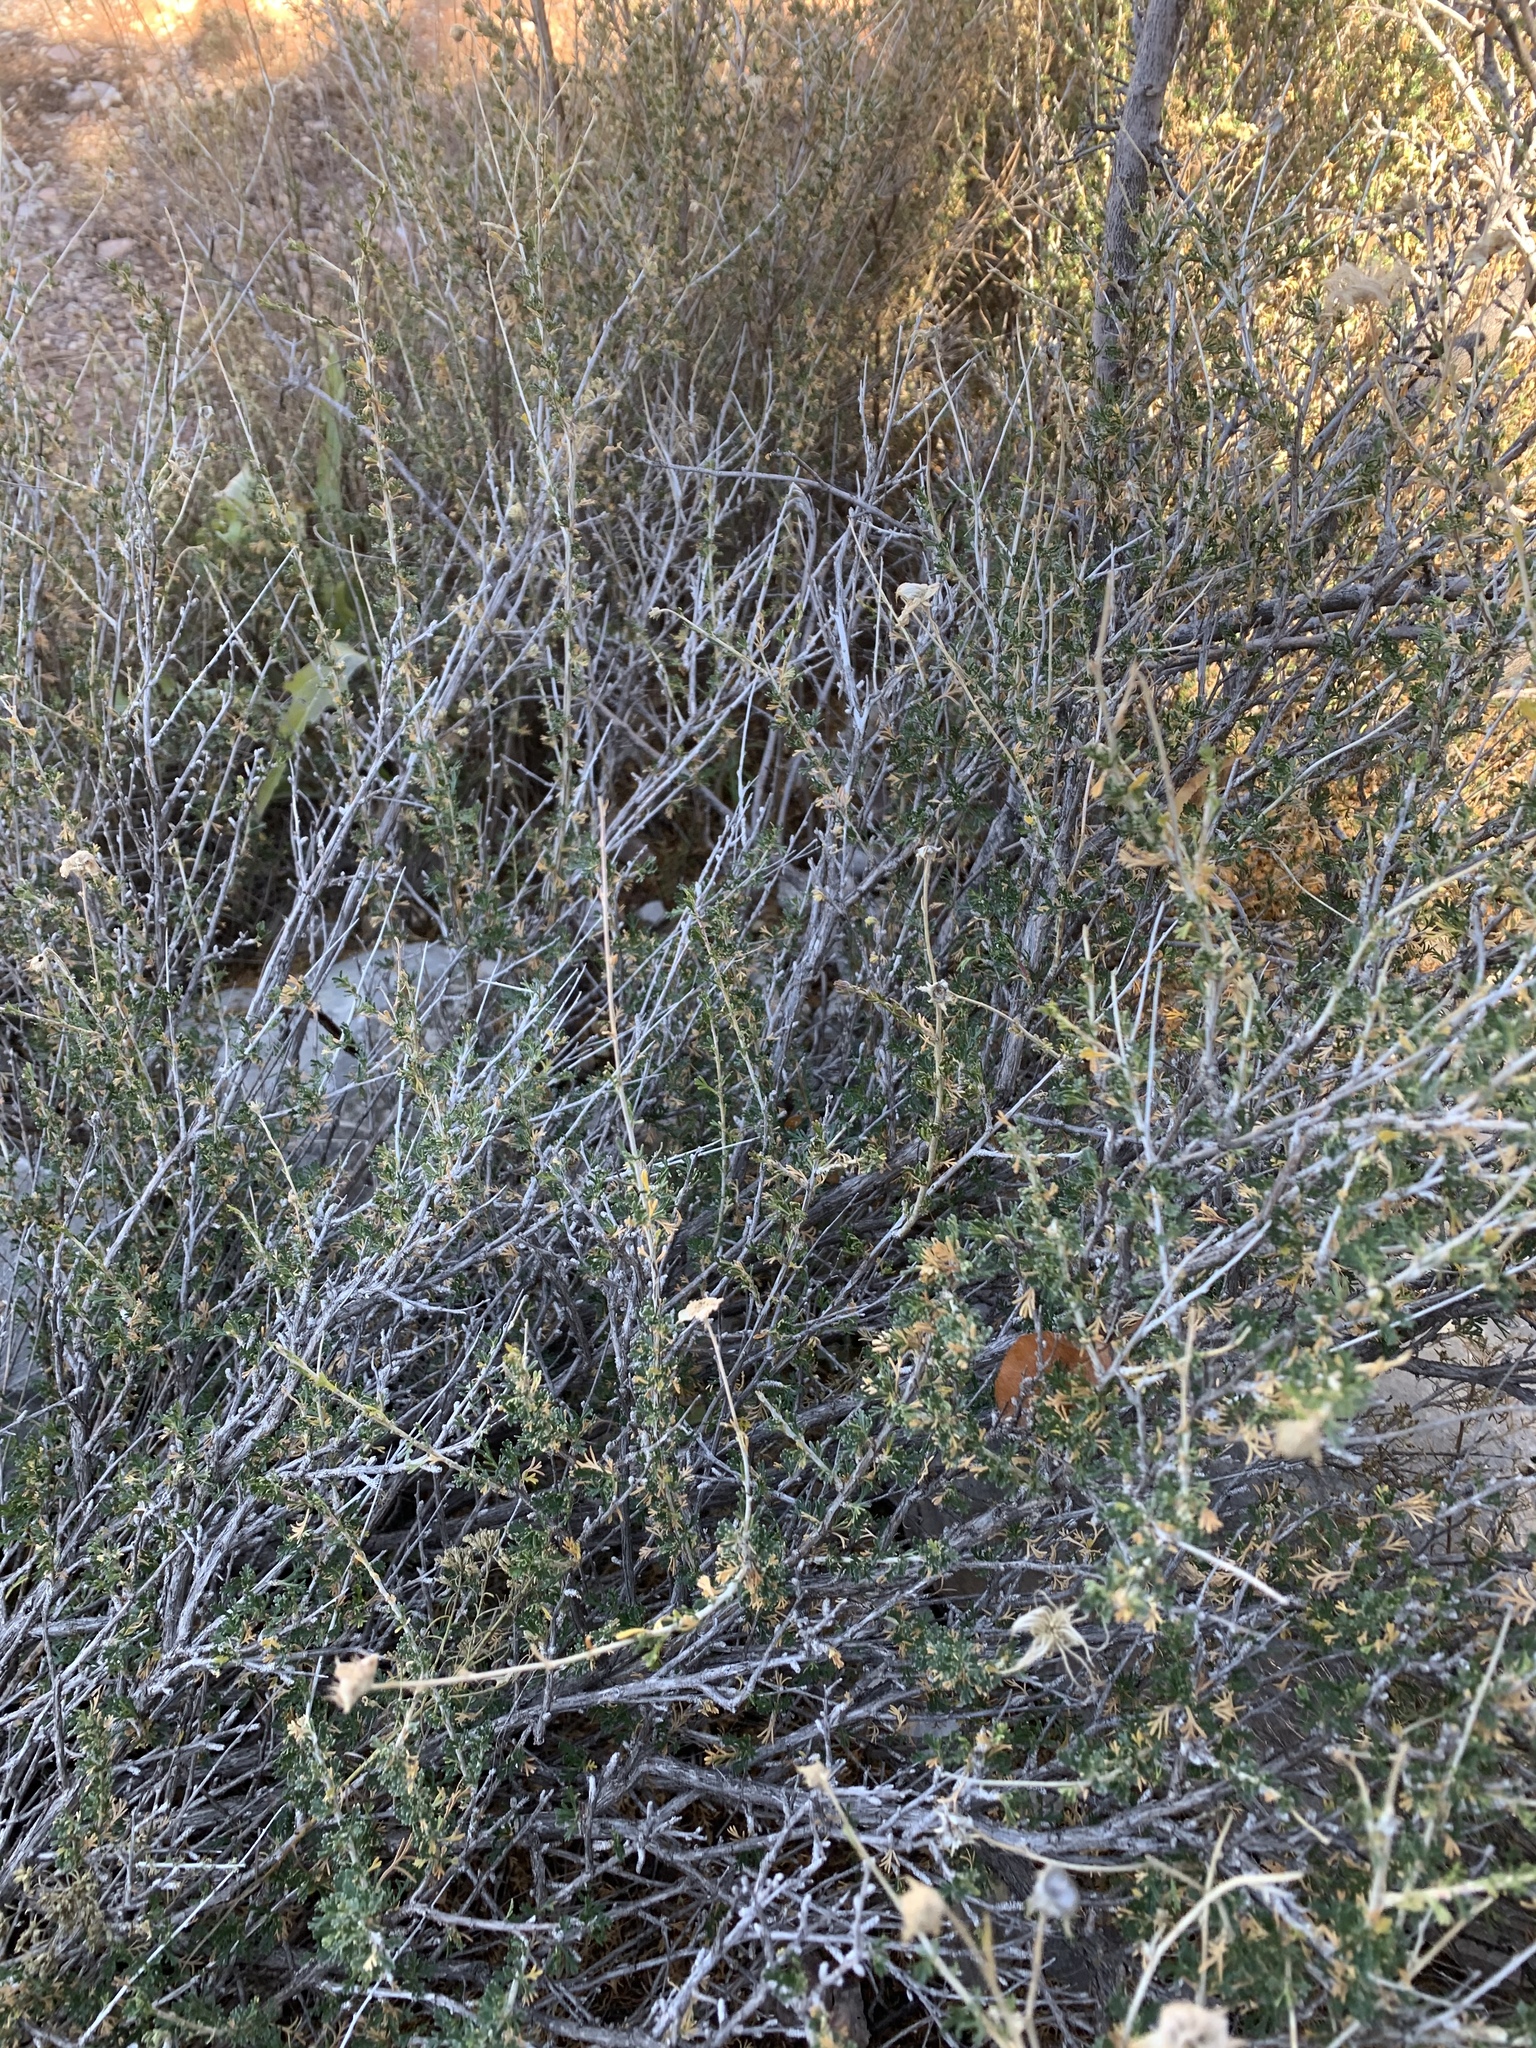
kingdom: Plantae
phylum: Tracheophyta
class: Magnoliopsida
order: Rosales
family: Rosaceae
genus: Fallugia
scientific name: Fallugia paradoxa
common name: Apache-plume
